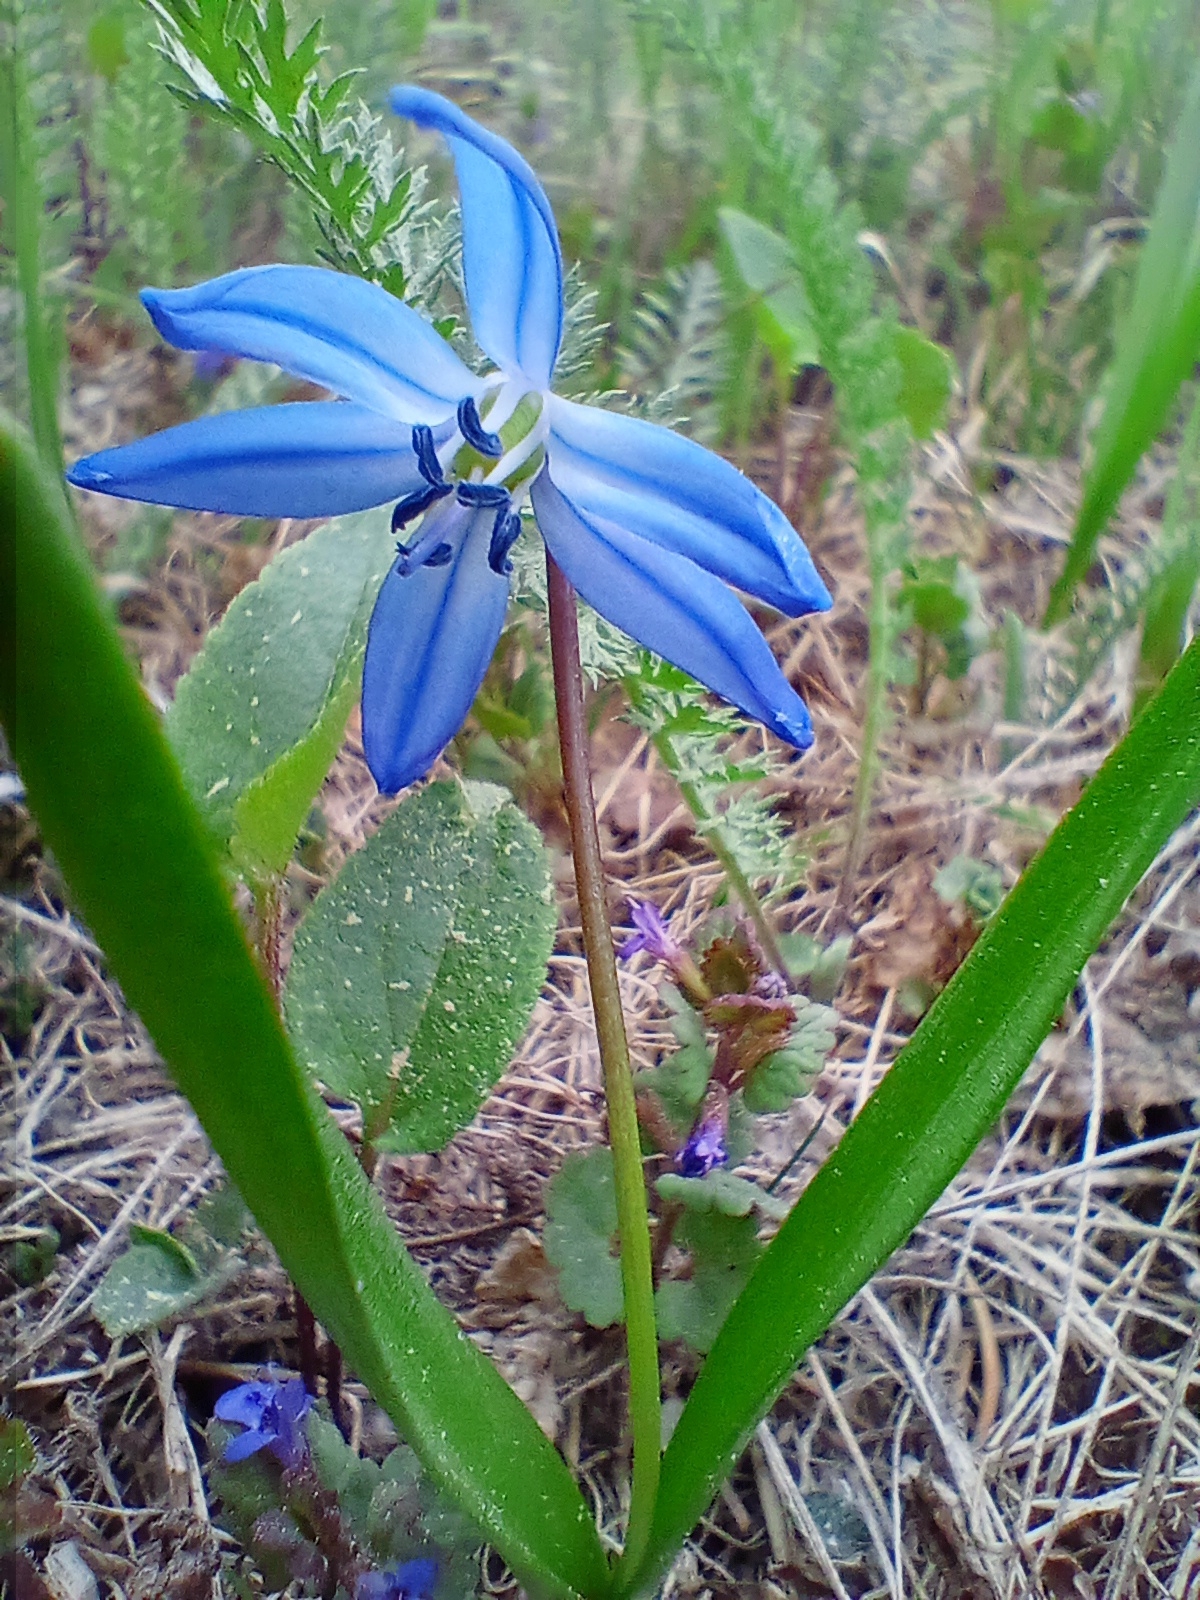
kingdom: Plantae
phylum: Tracheophyta
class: Liliopsida
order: Asparagales
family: Asparagaceae
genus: Scilla
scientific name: Scilla siberica
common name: Siberian squill
